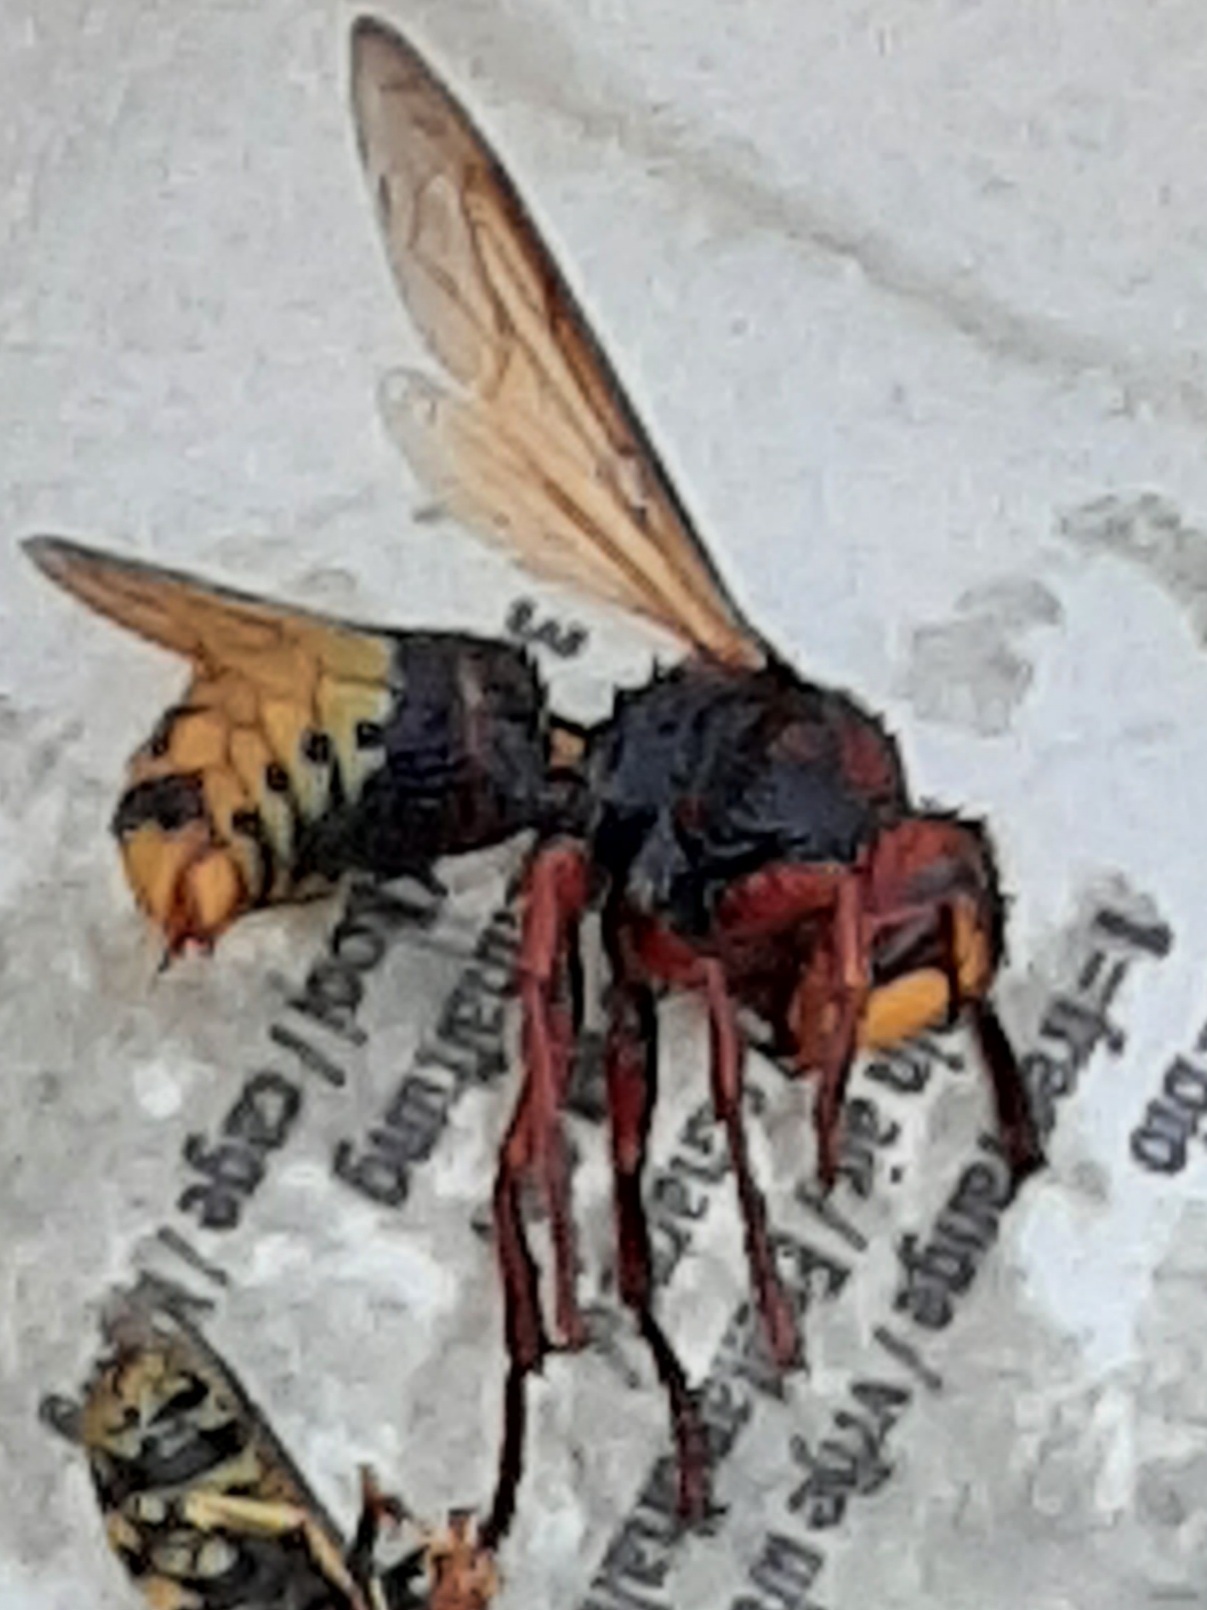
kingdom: Animalia
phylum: Arthropoda
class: Insecta
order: Hymenoptera
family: Vespidae
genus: Vespa
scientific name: Vespa crabro
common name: Hornet
